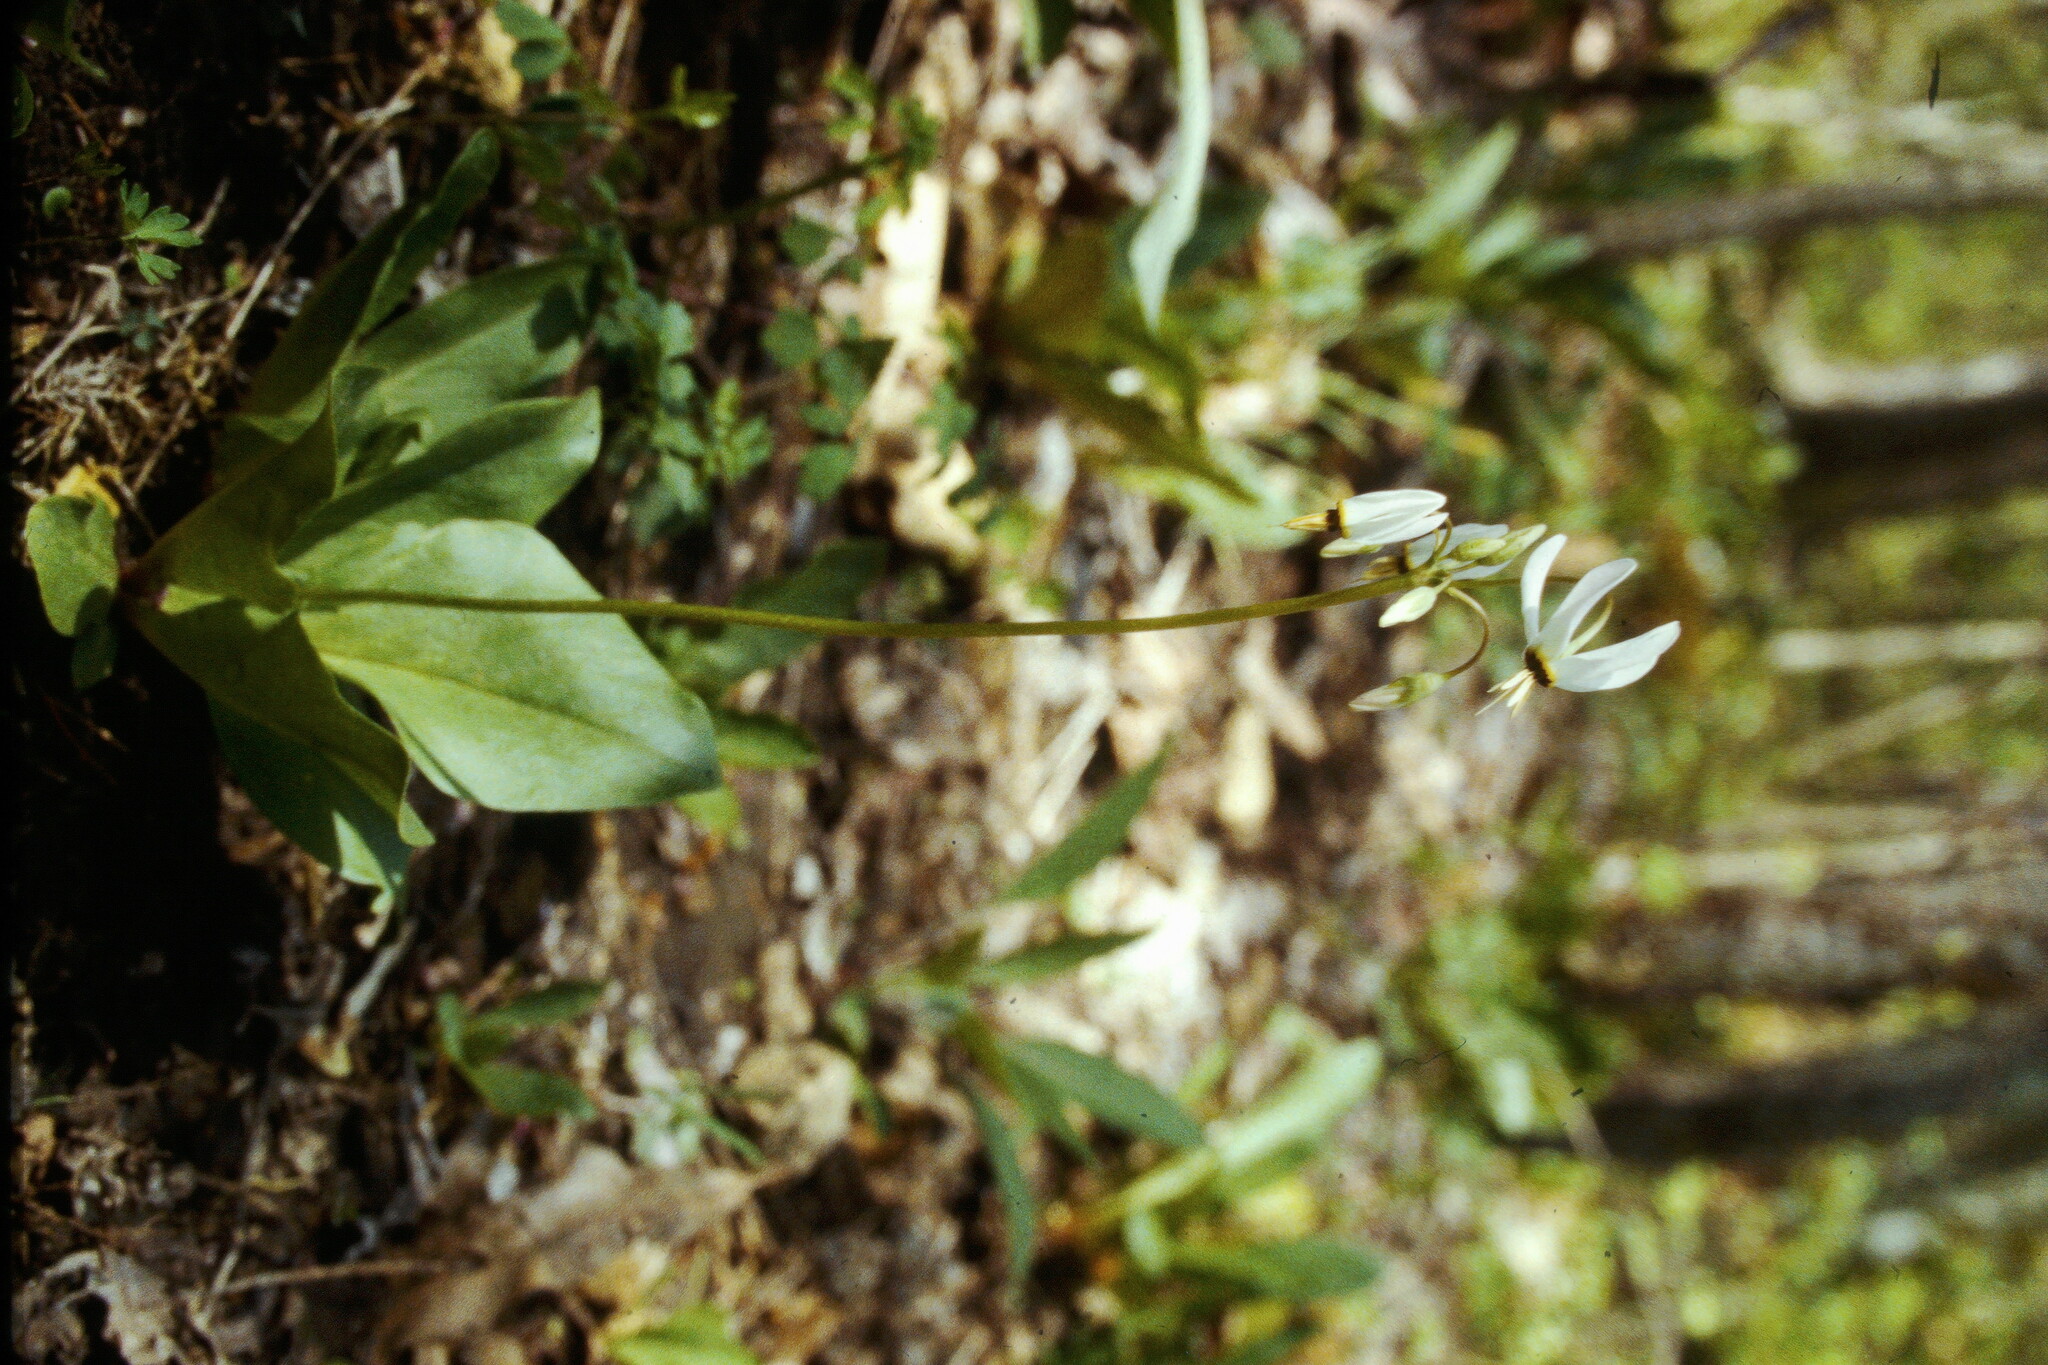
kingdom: Plantae
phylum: Tracheophyta
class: Magnoliopsida
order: Ericales
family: Primulaceae
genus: Dodecatheon
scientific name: Dodecatheon meadia
